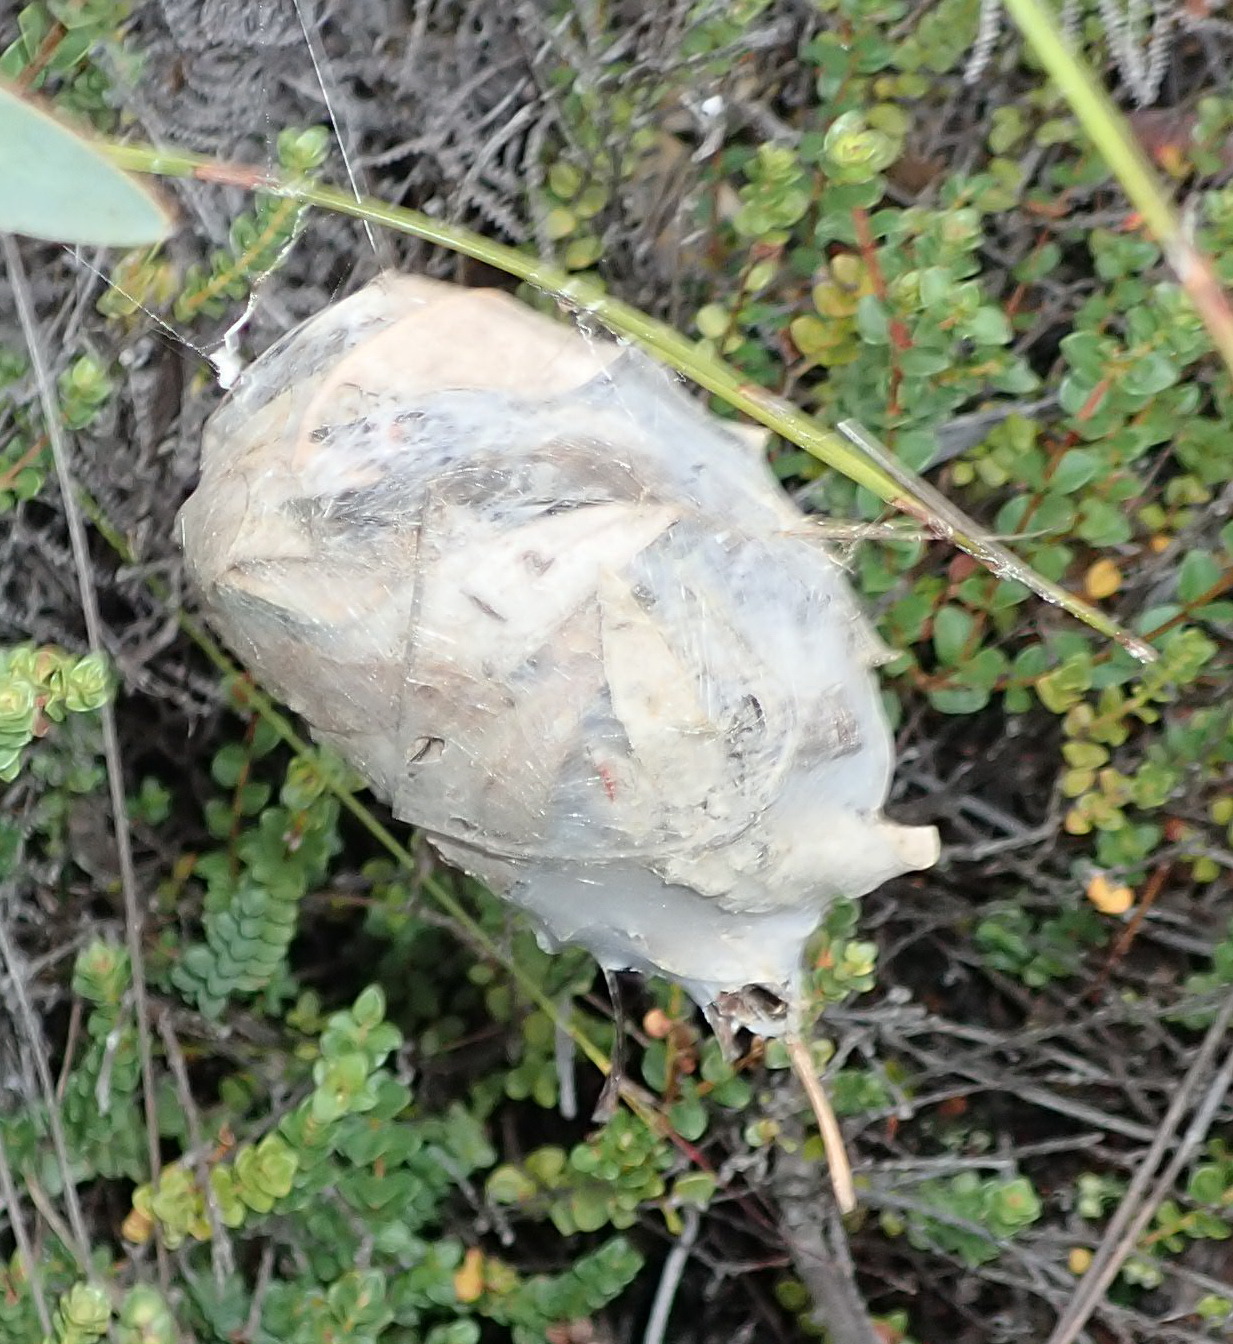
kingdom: Animalia
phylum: Arthropoda
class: Arachnida
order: Araneae
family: Sparassidae
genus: Palystes
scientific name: Palystes superciliosus
